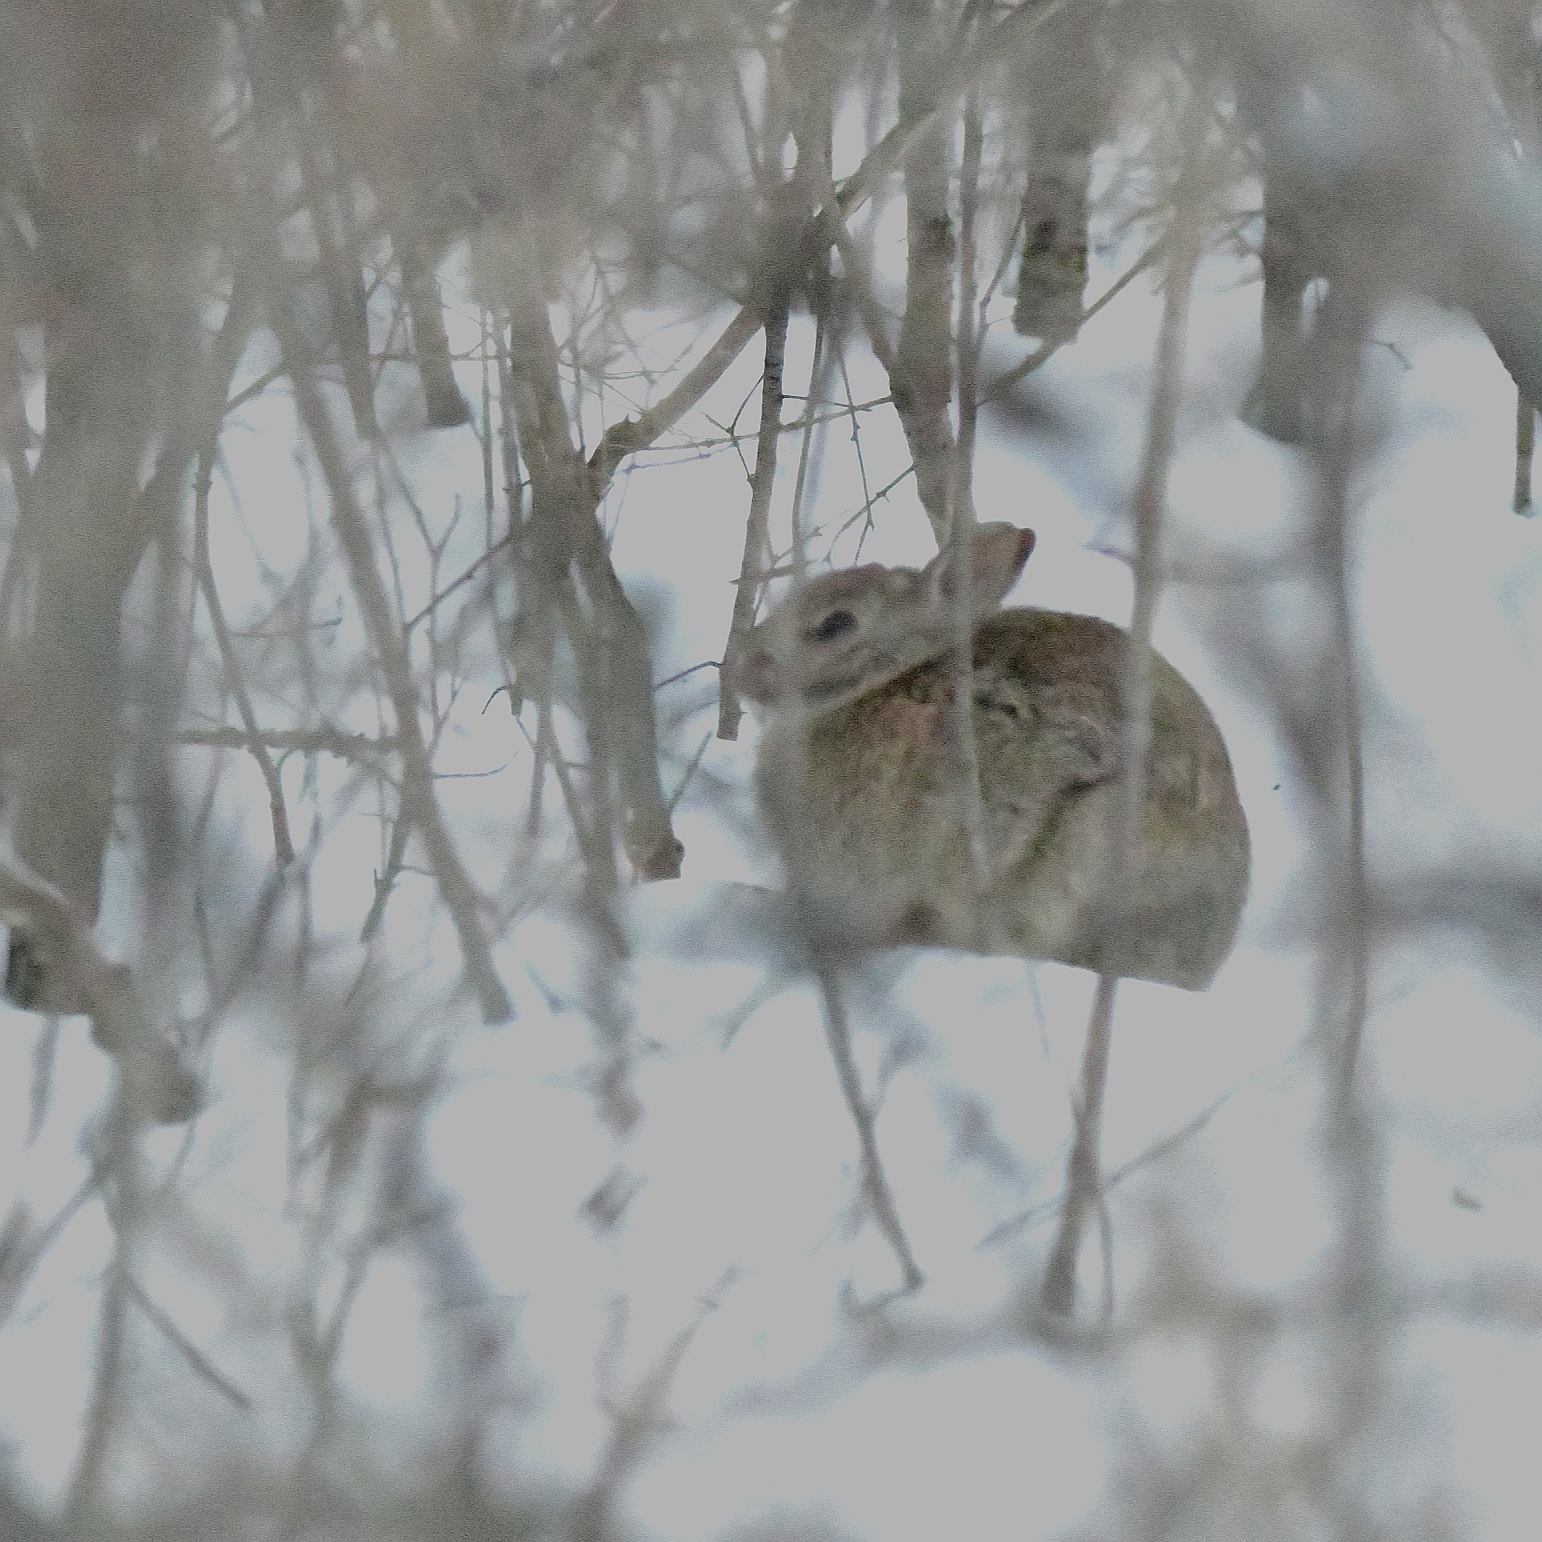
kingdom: Animalia
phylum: Chordata
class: Mammalia
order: Lagomorpha
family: Leporidae
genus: Sylvilagus
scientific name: Sylvilagus floridanus
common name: Eastern cottontail
